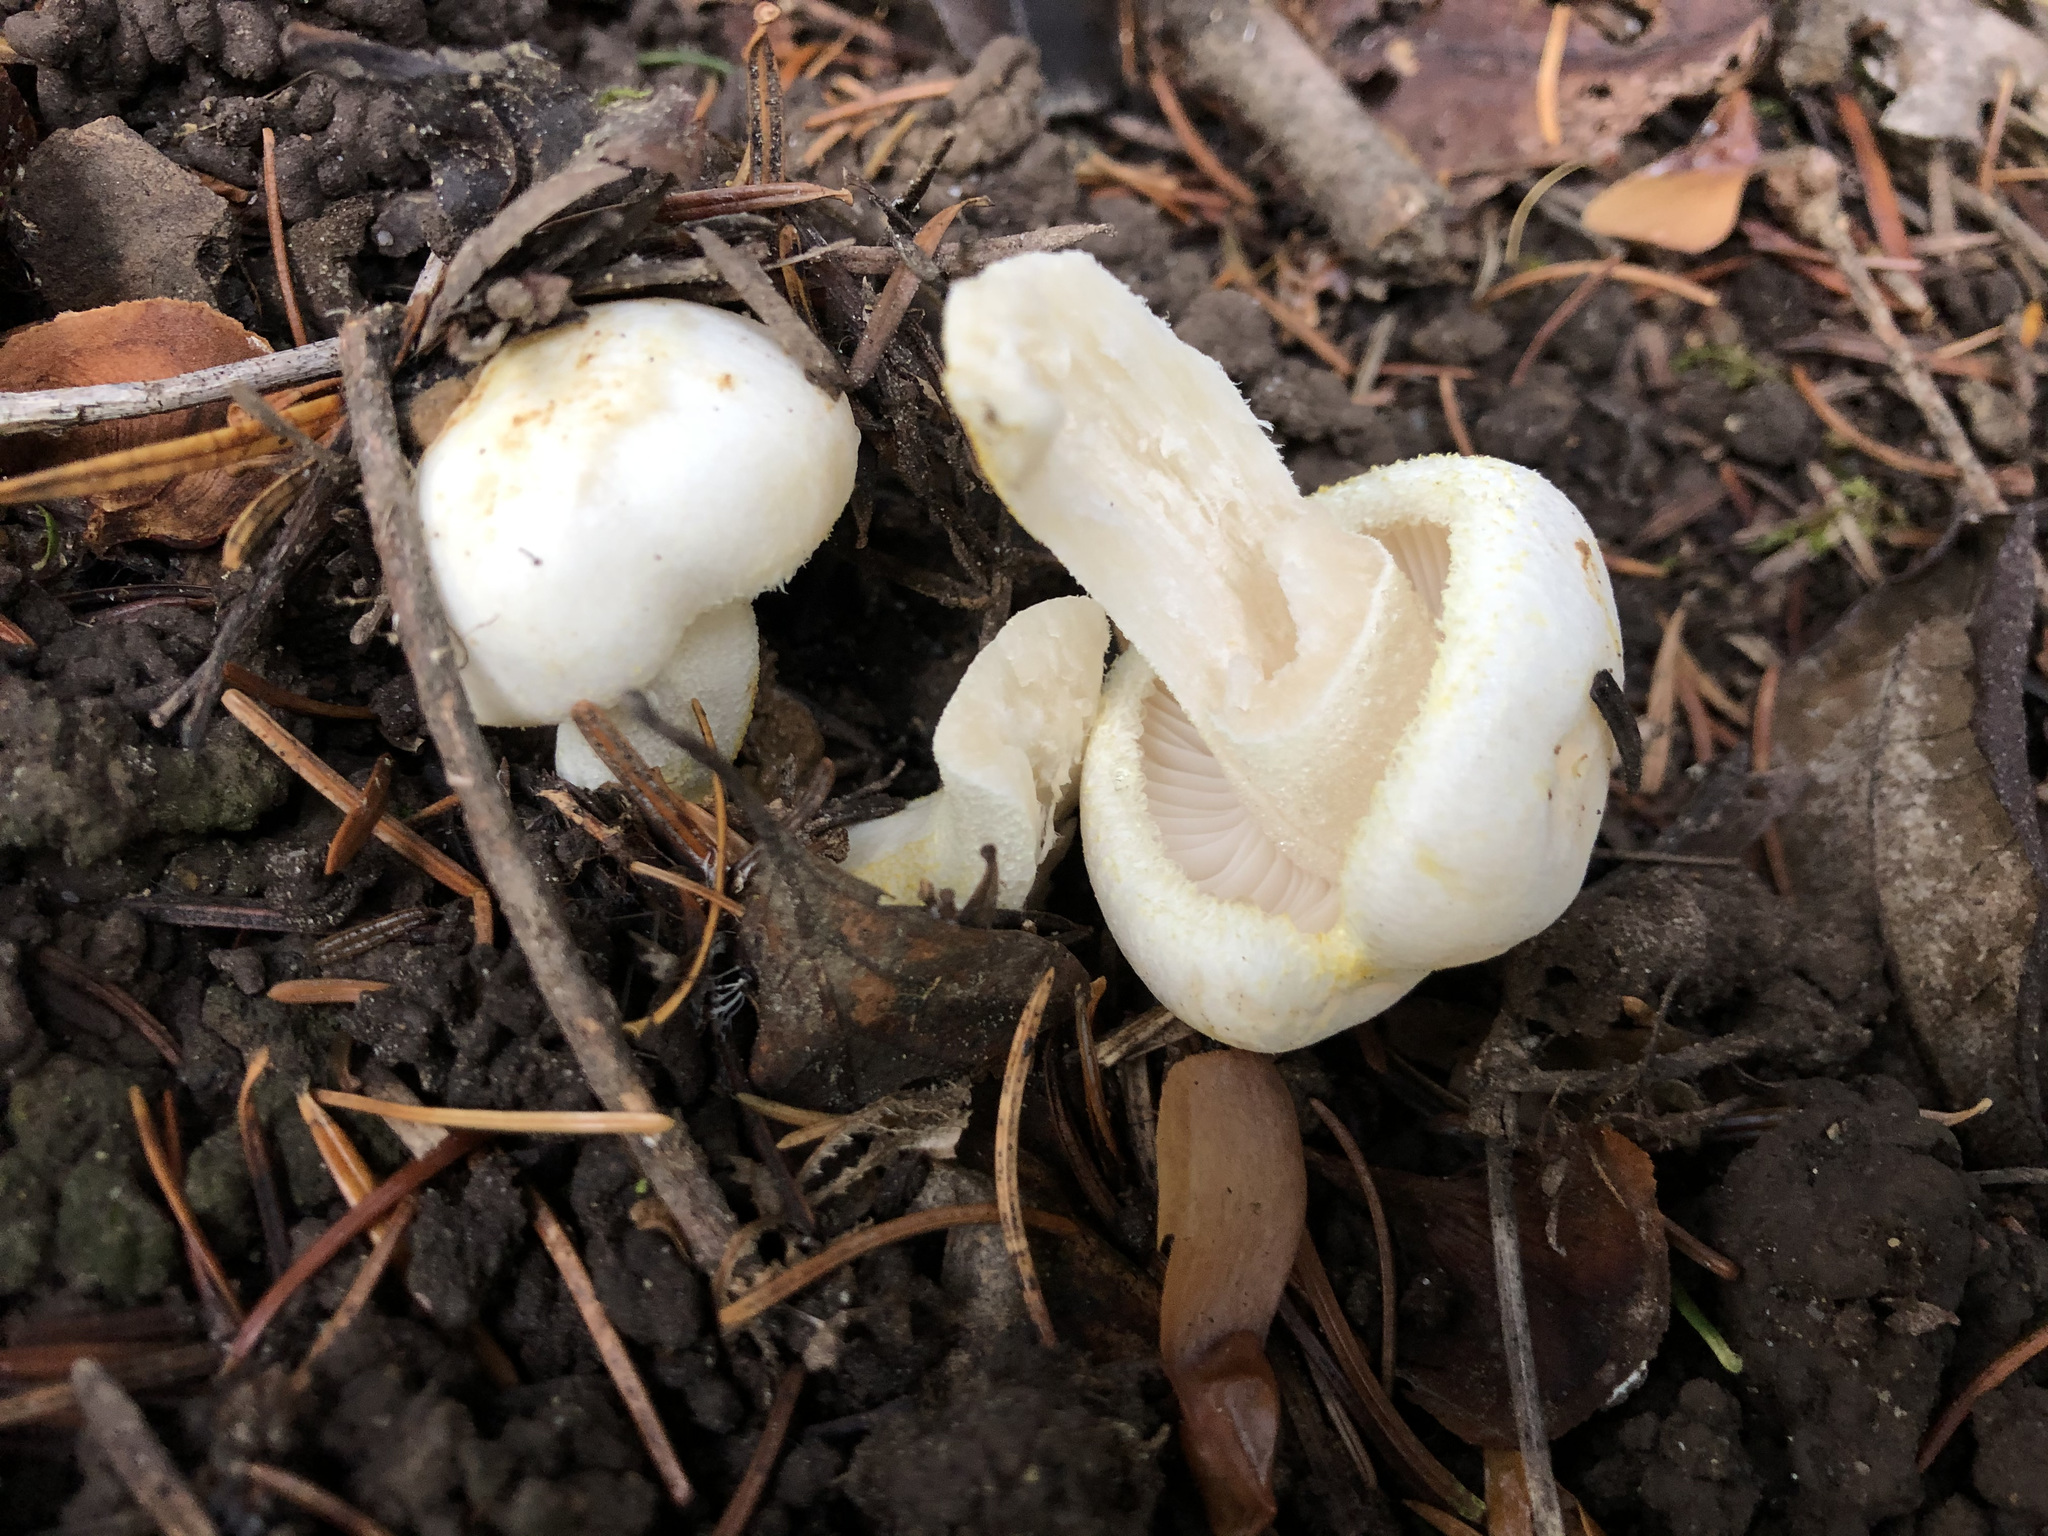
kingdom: Fungi
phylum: Basidiomycota
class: Agaricomycetes
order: Agaricales
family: Hygrophoraceae
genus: Hygrophorus
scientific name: Hygrophorus chrysodon
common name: Gold flecked woodwax
